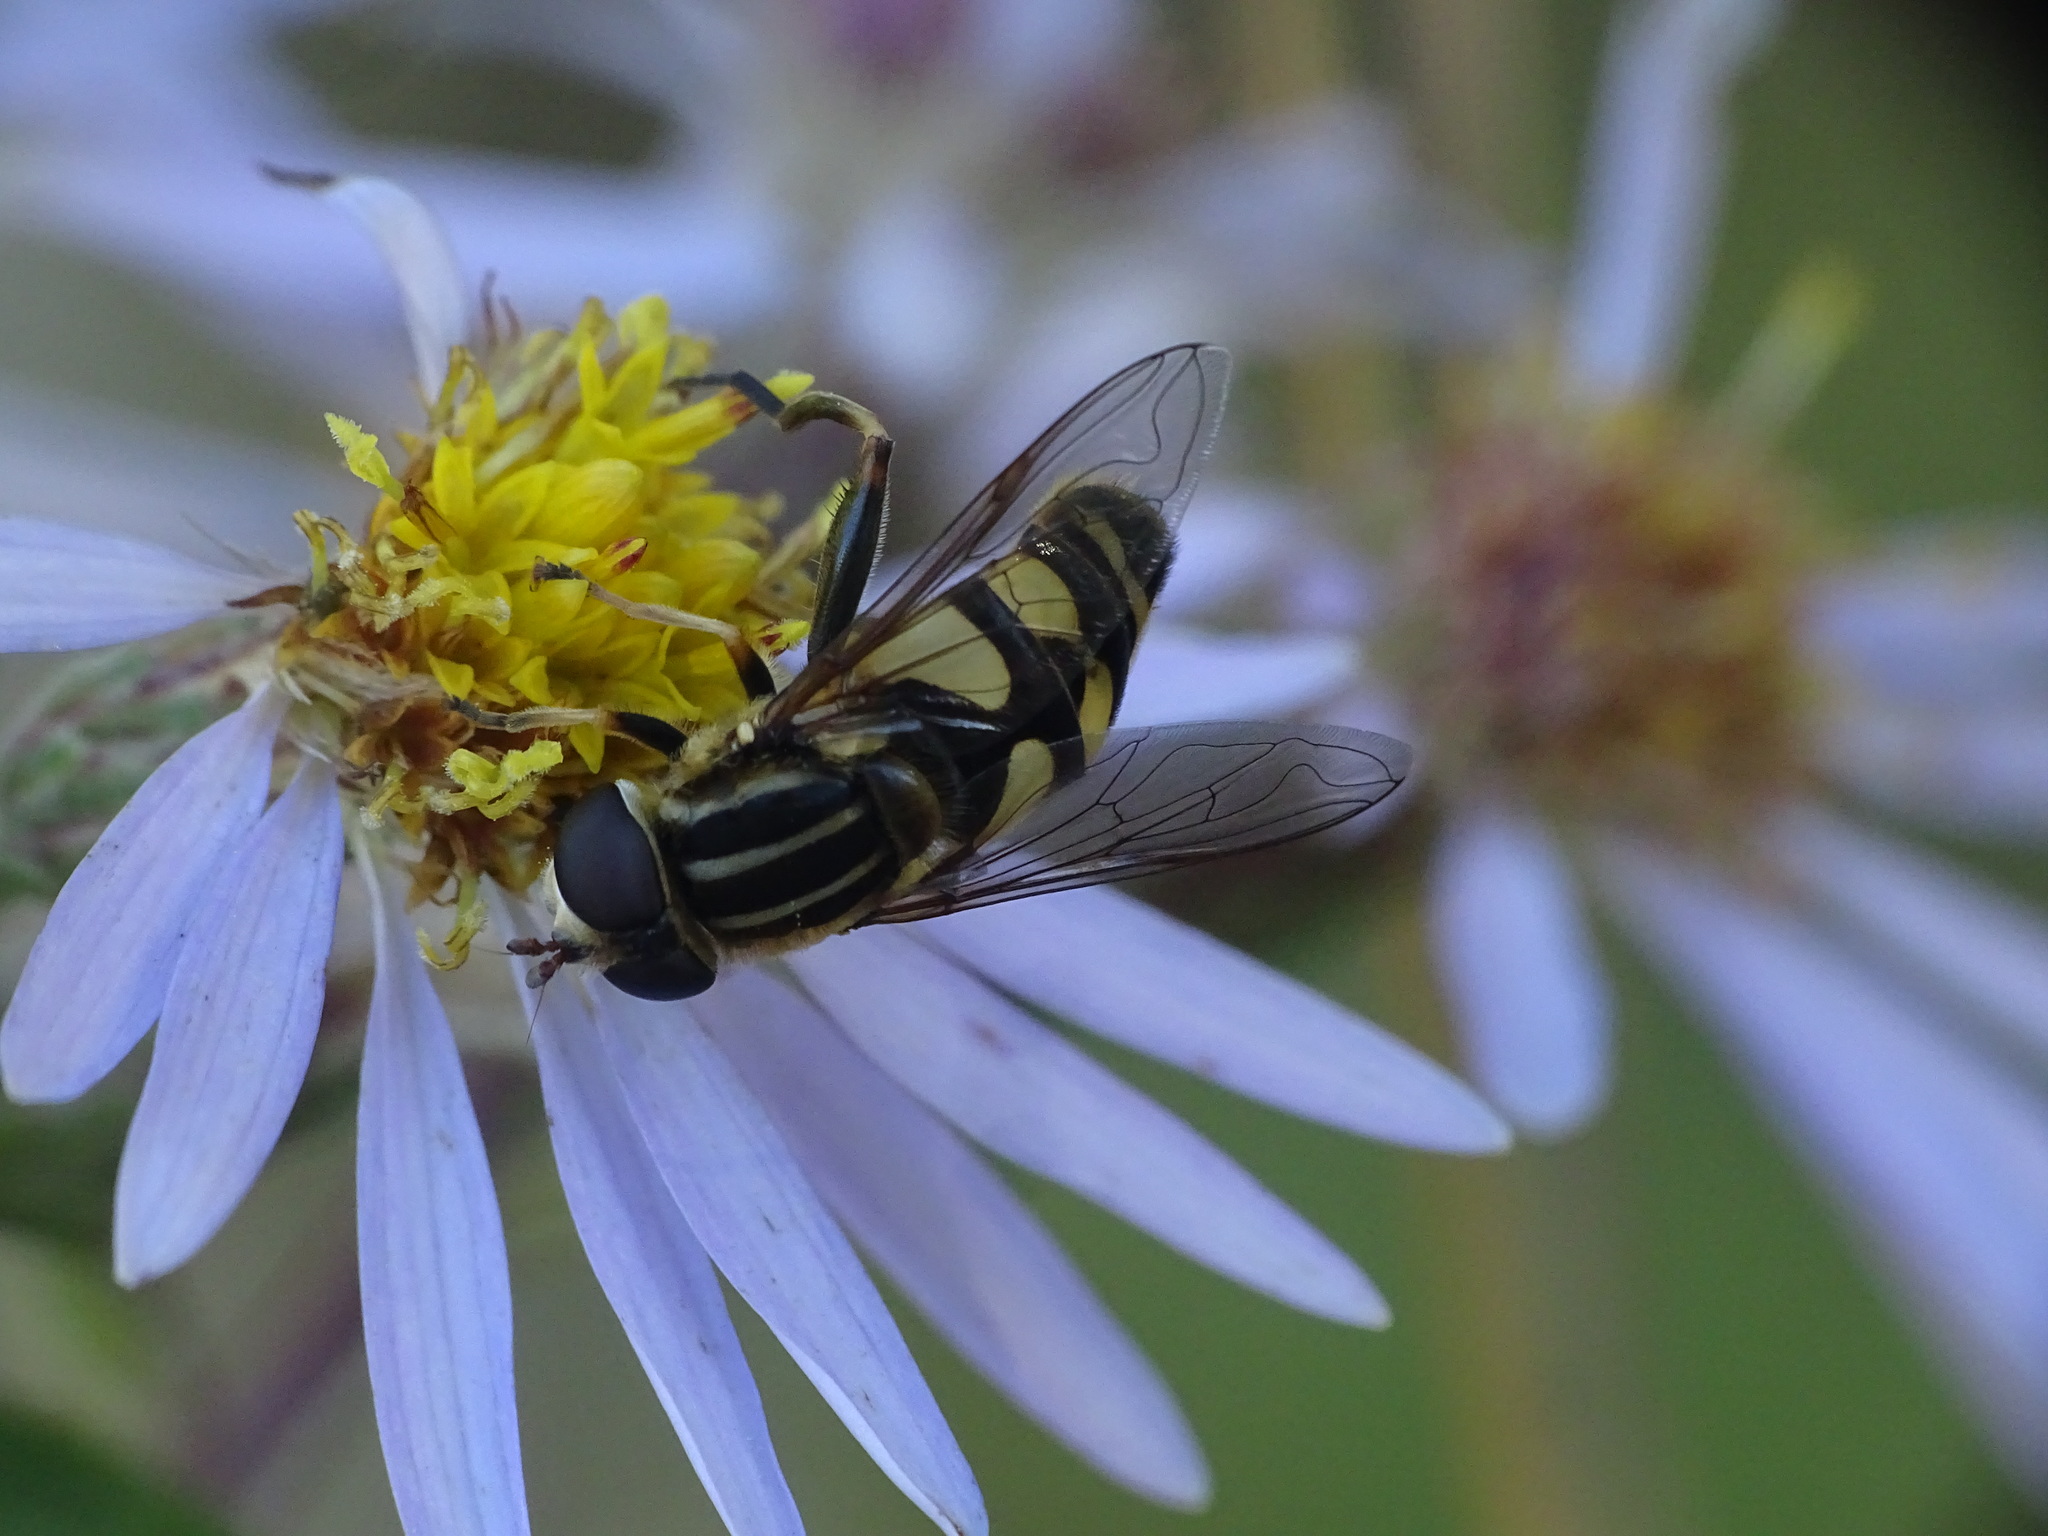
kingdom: Animalia
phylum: Arthropoda
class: Insecta
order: Diptera
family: Syrphidae
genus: Helophilus
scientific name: Helophilus fasciatus
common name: Narrow-headed marsh fly
